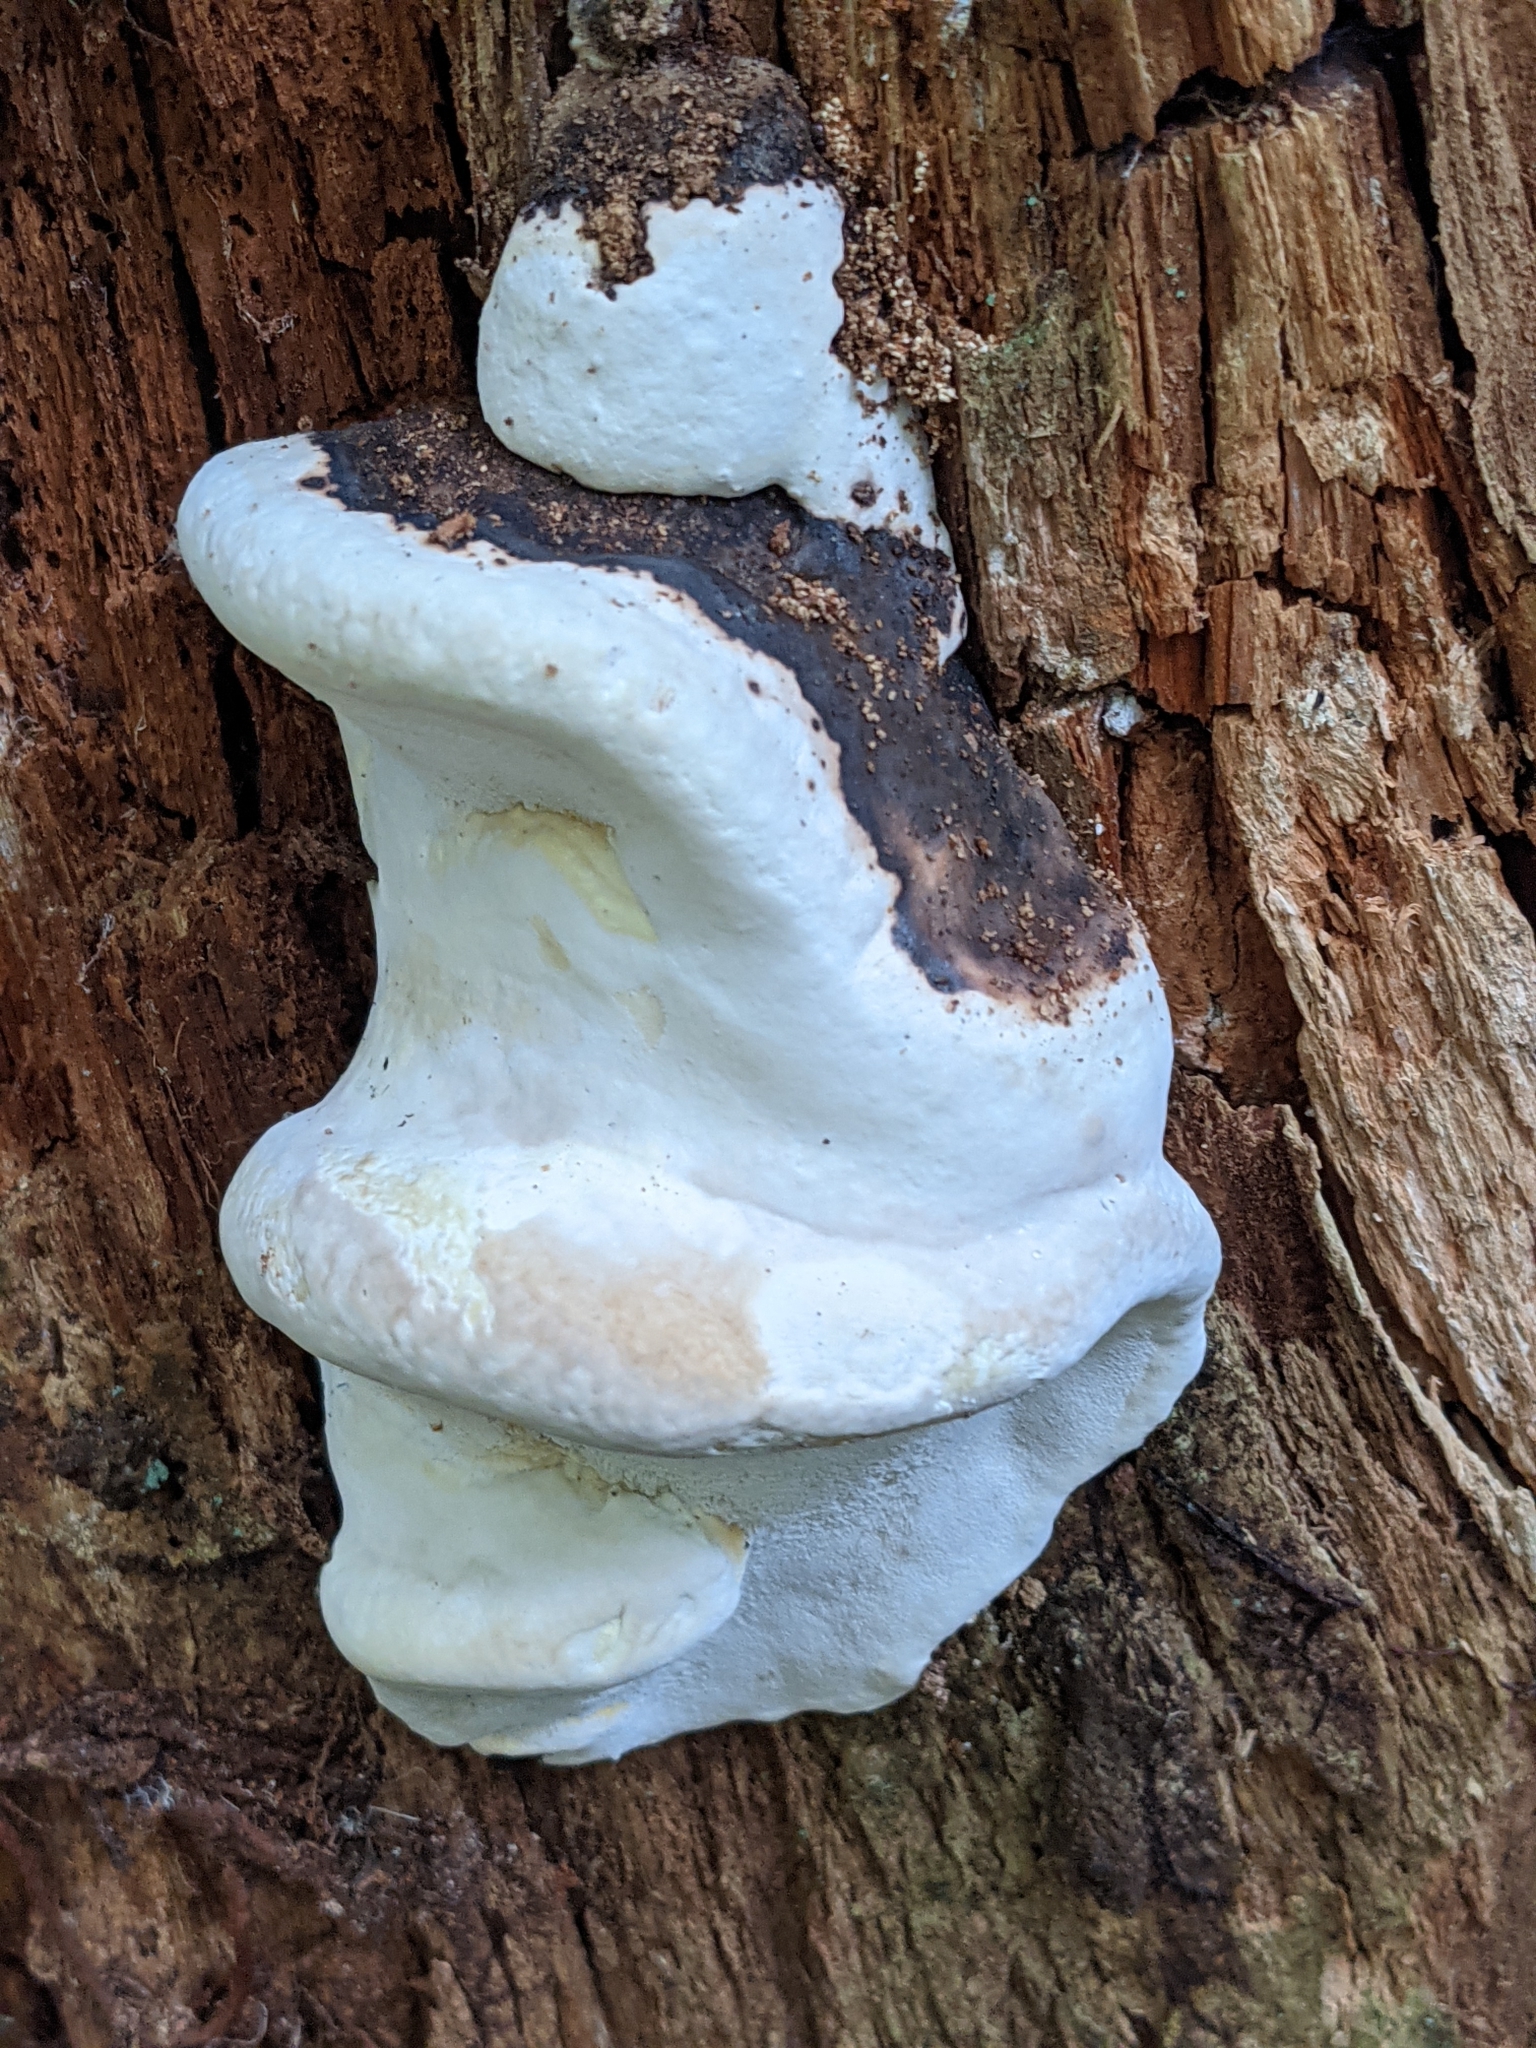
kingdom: Fungi
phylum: Basidiomycota
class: Agaricomycetes
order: Polyporales
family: Fomitopsidaceae
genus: Fomitopsis
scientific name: Fomitopsis ochracea
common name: American brown fomitopsis
